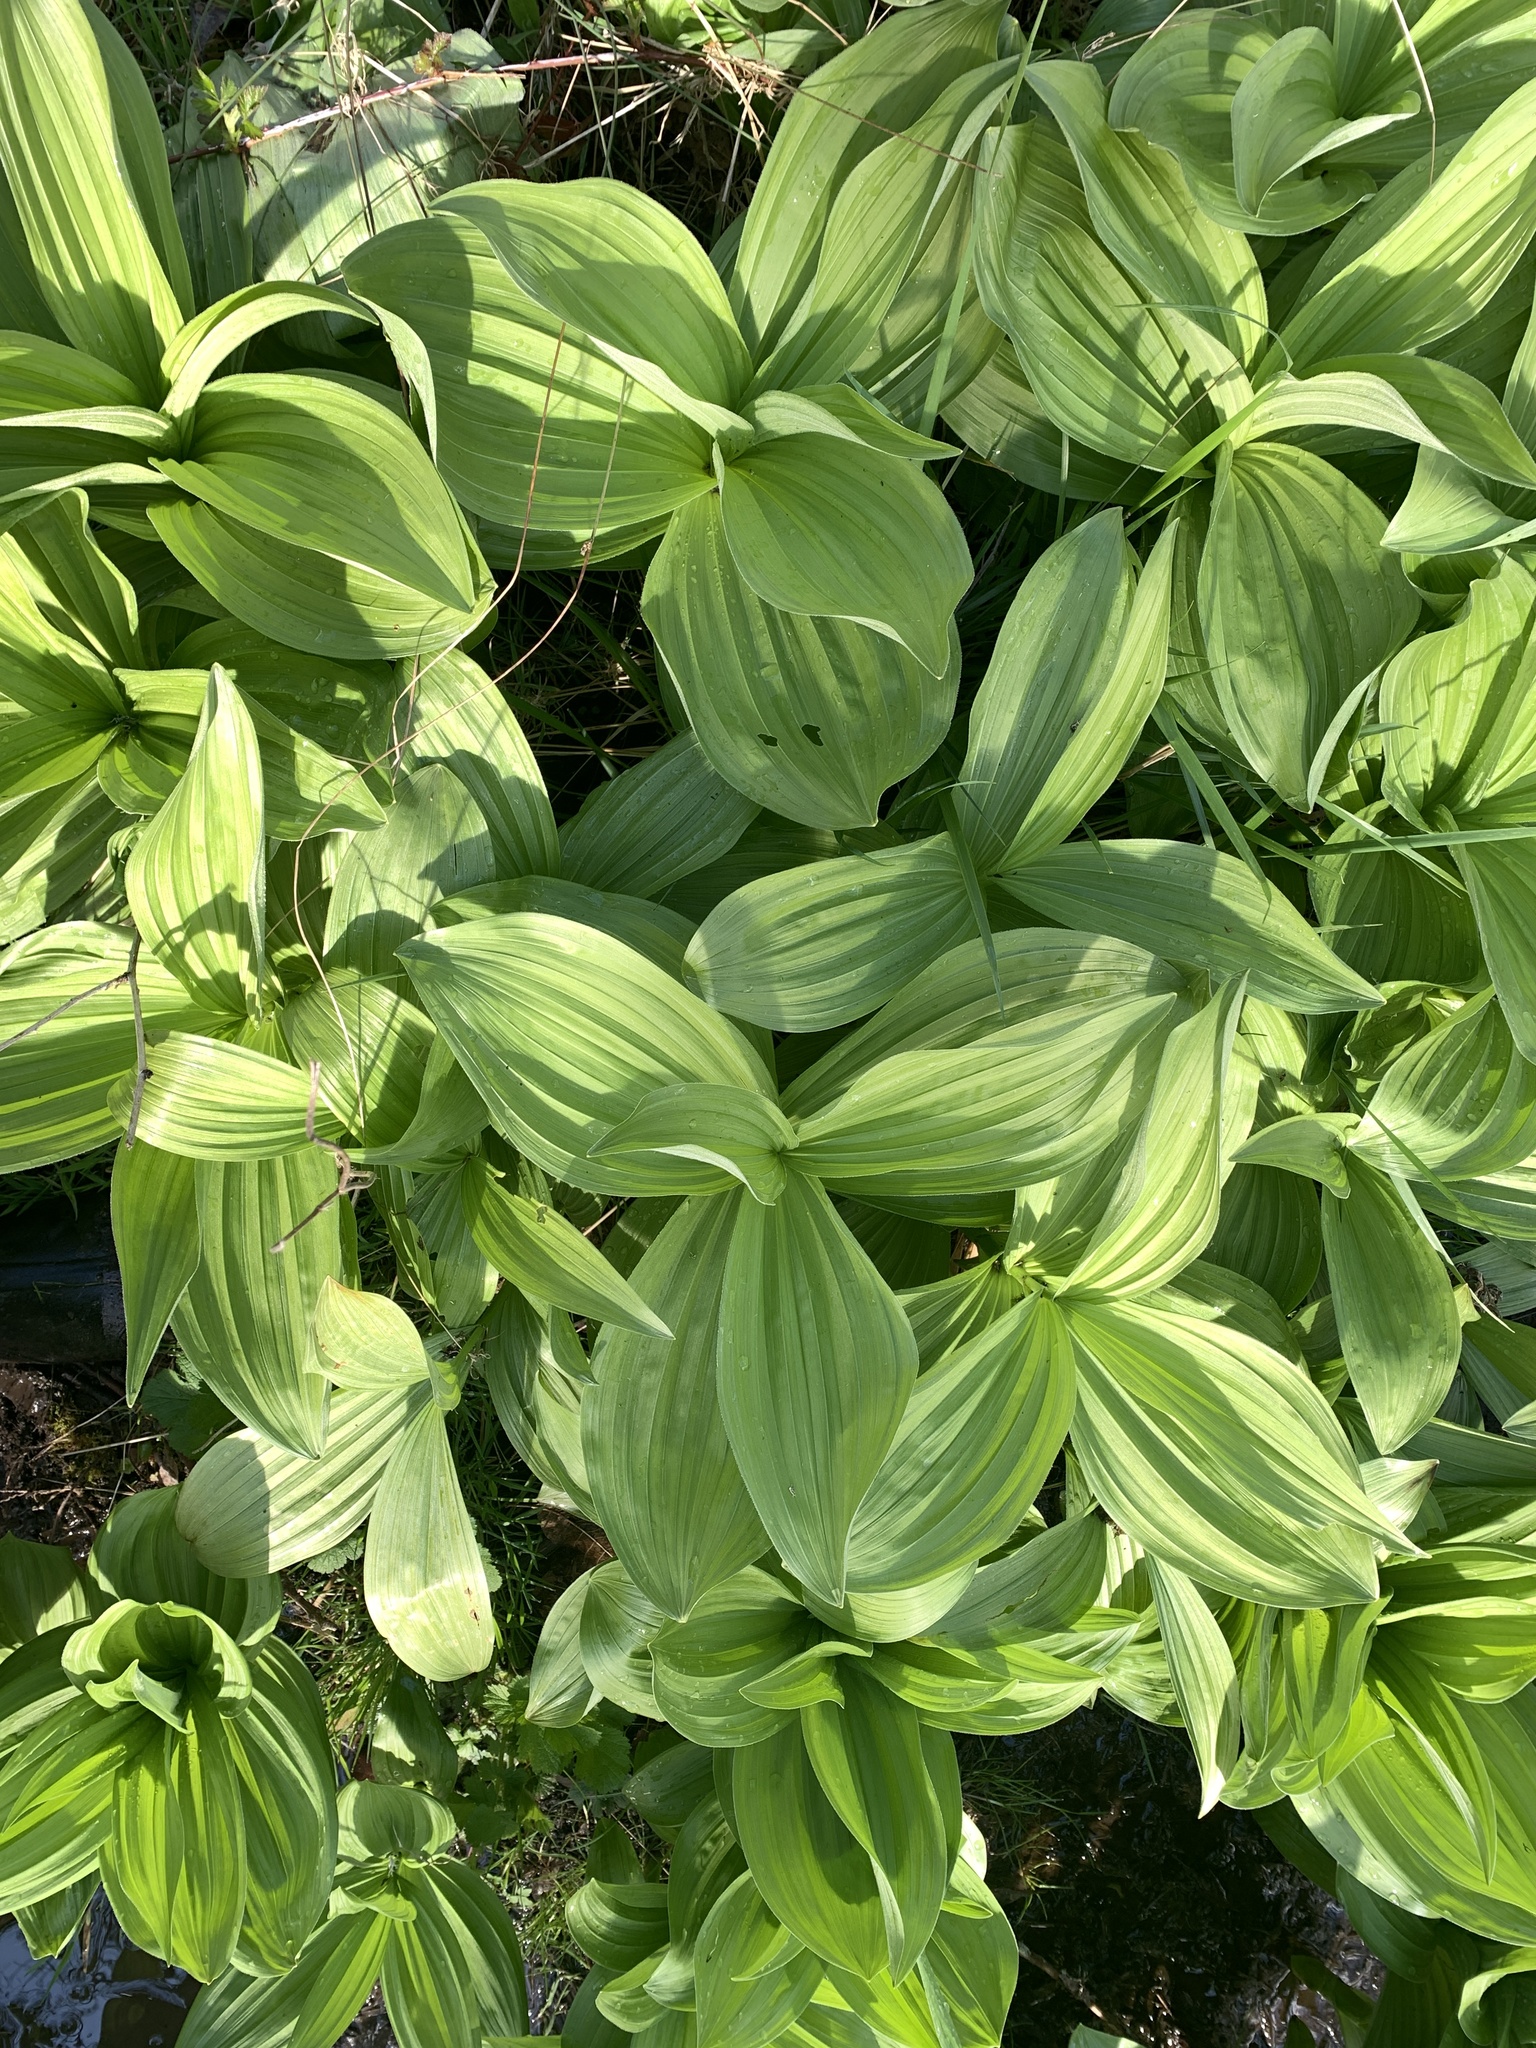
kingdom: Plantae
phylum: Tracheophyta
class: Liliopsida
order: Liliales
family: Melanthiaceae
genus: Veratrum
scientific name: Veratrum californicum
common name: California veratrum
